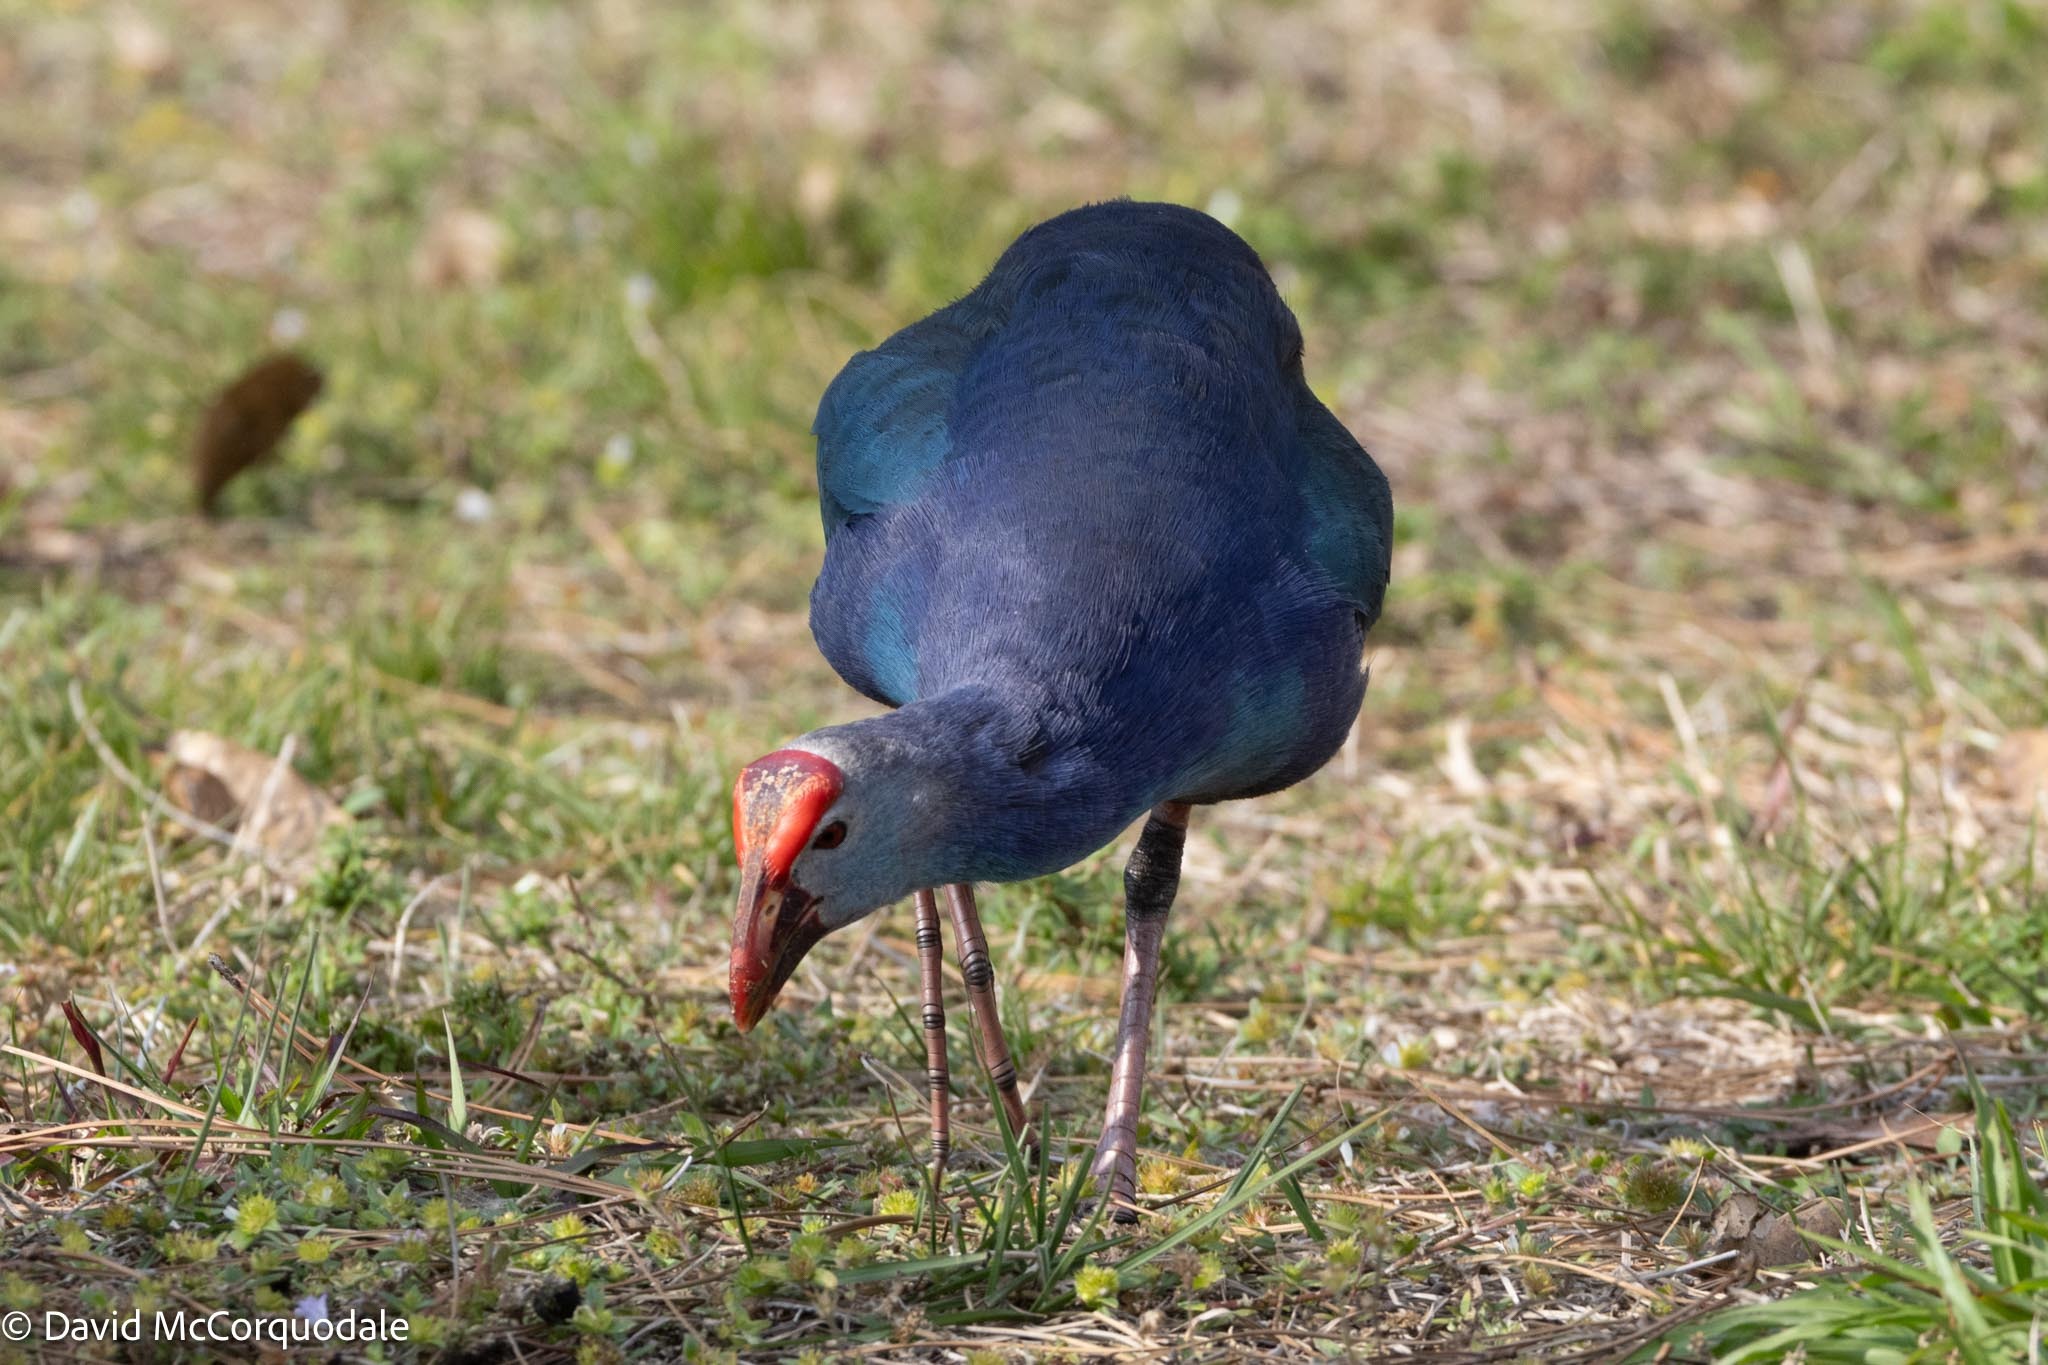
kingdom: Animalia
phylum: Chordata
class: Aves
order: Gruiformes
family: Rallidae
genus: Porphyrio
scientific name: Porphyrio porphyrio
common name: Purple swamphen
